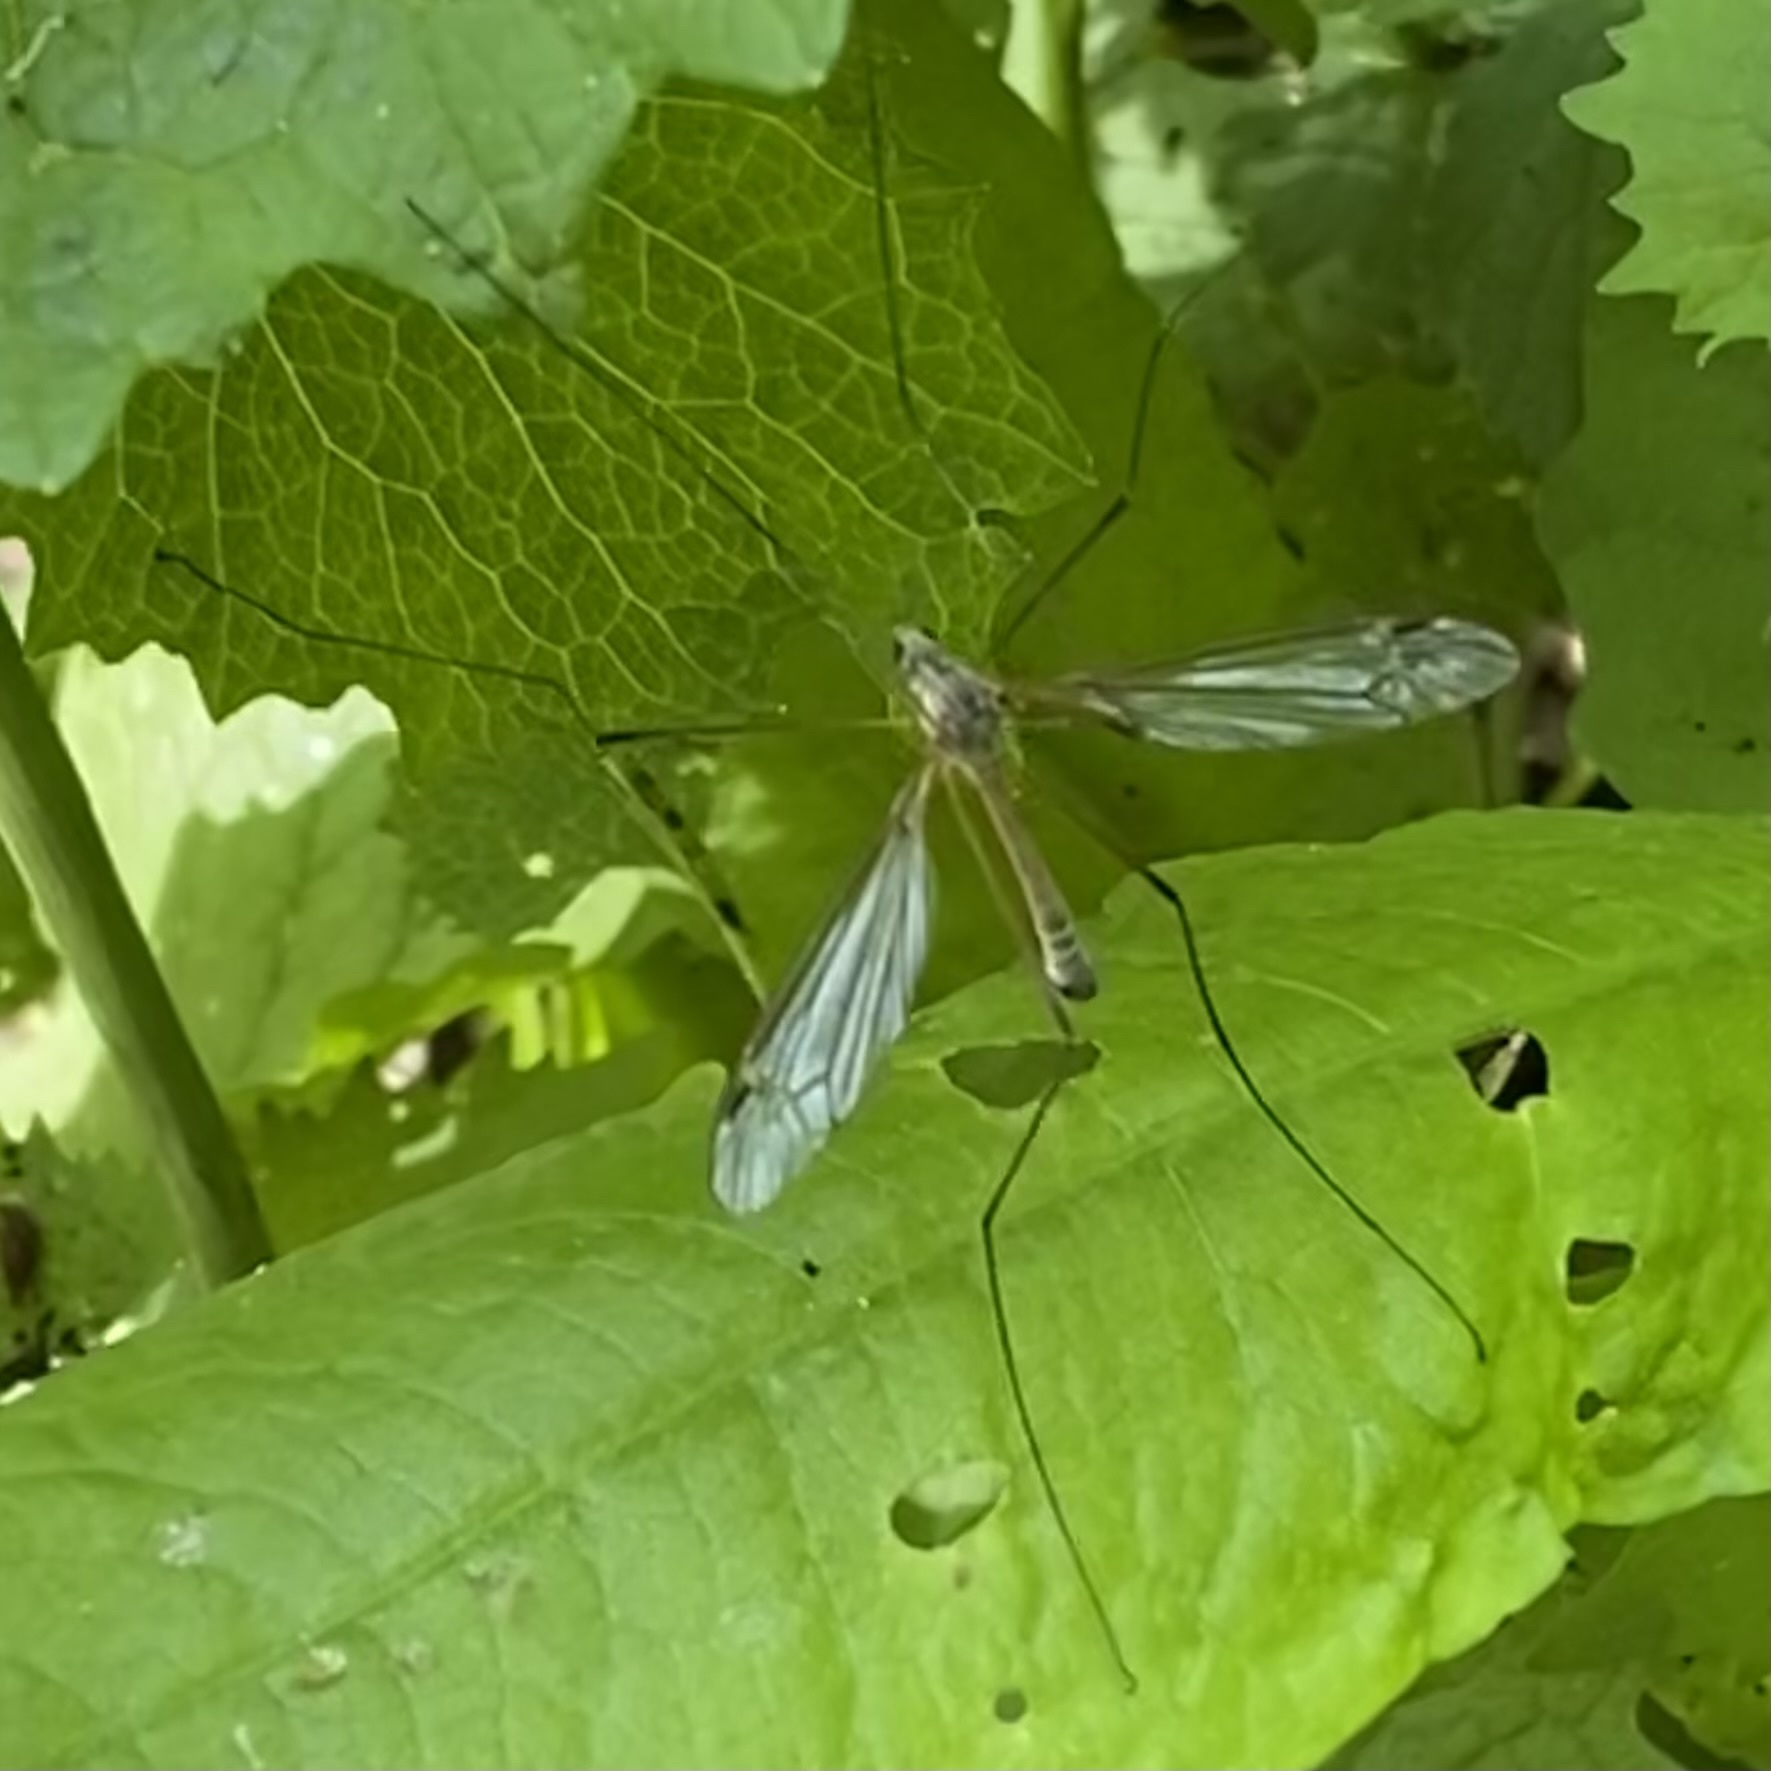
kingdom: Animalia
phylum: Arthropoda
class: Insecta
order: Diptera
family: Tipulidae
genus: Tipula
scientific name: Tipula
